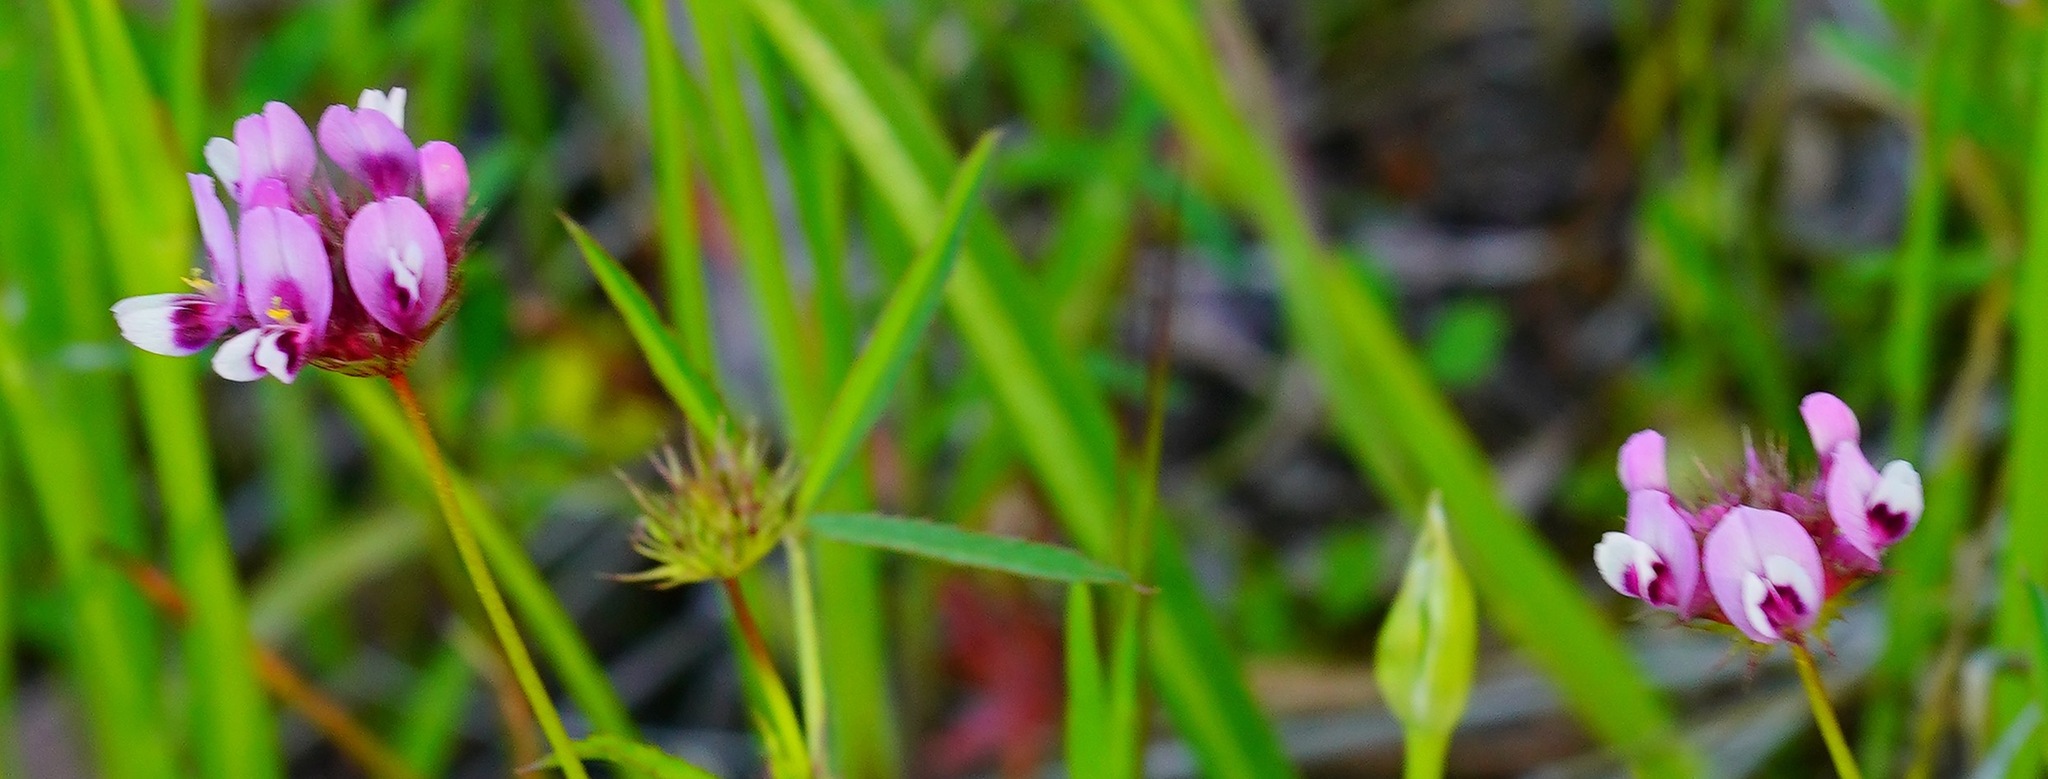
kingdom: Plantae
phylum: Tracheophyta
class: Magnoliopsida
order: Fabales
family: Fabaceae
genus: Trifolium
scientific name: Trifolium willdenovii
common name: Tomcat clover
